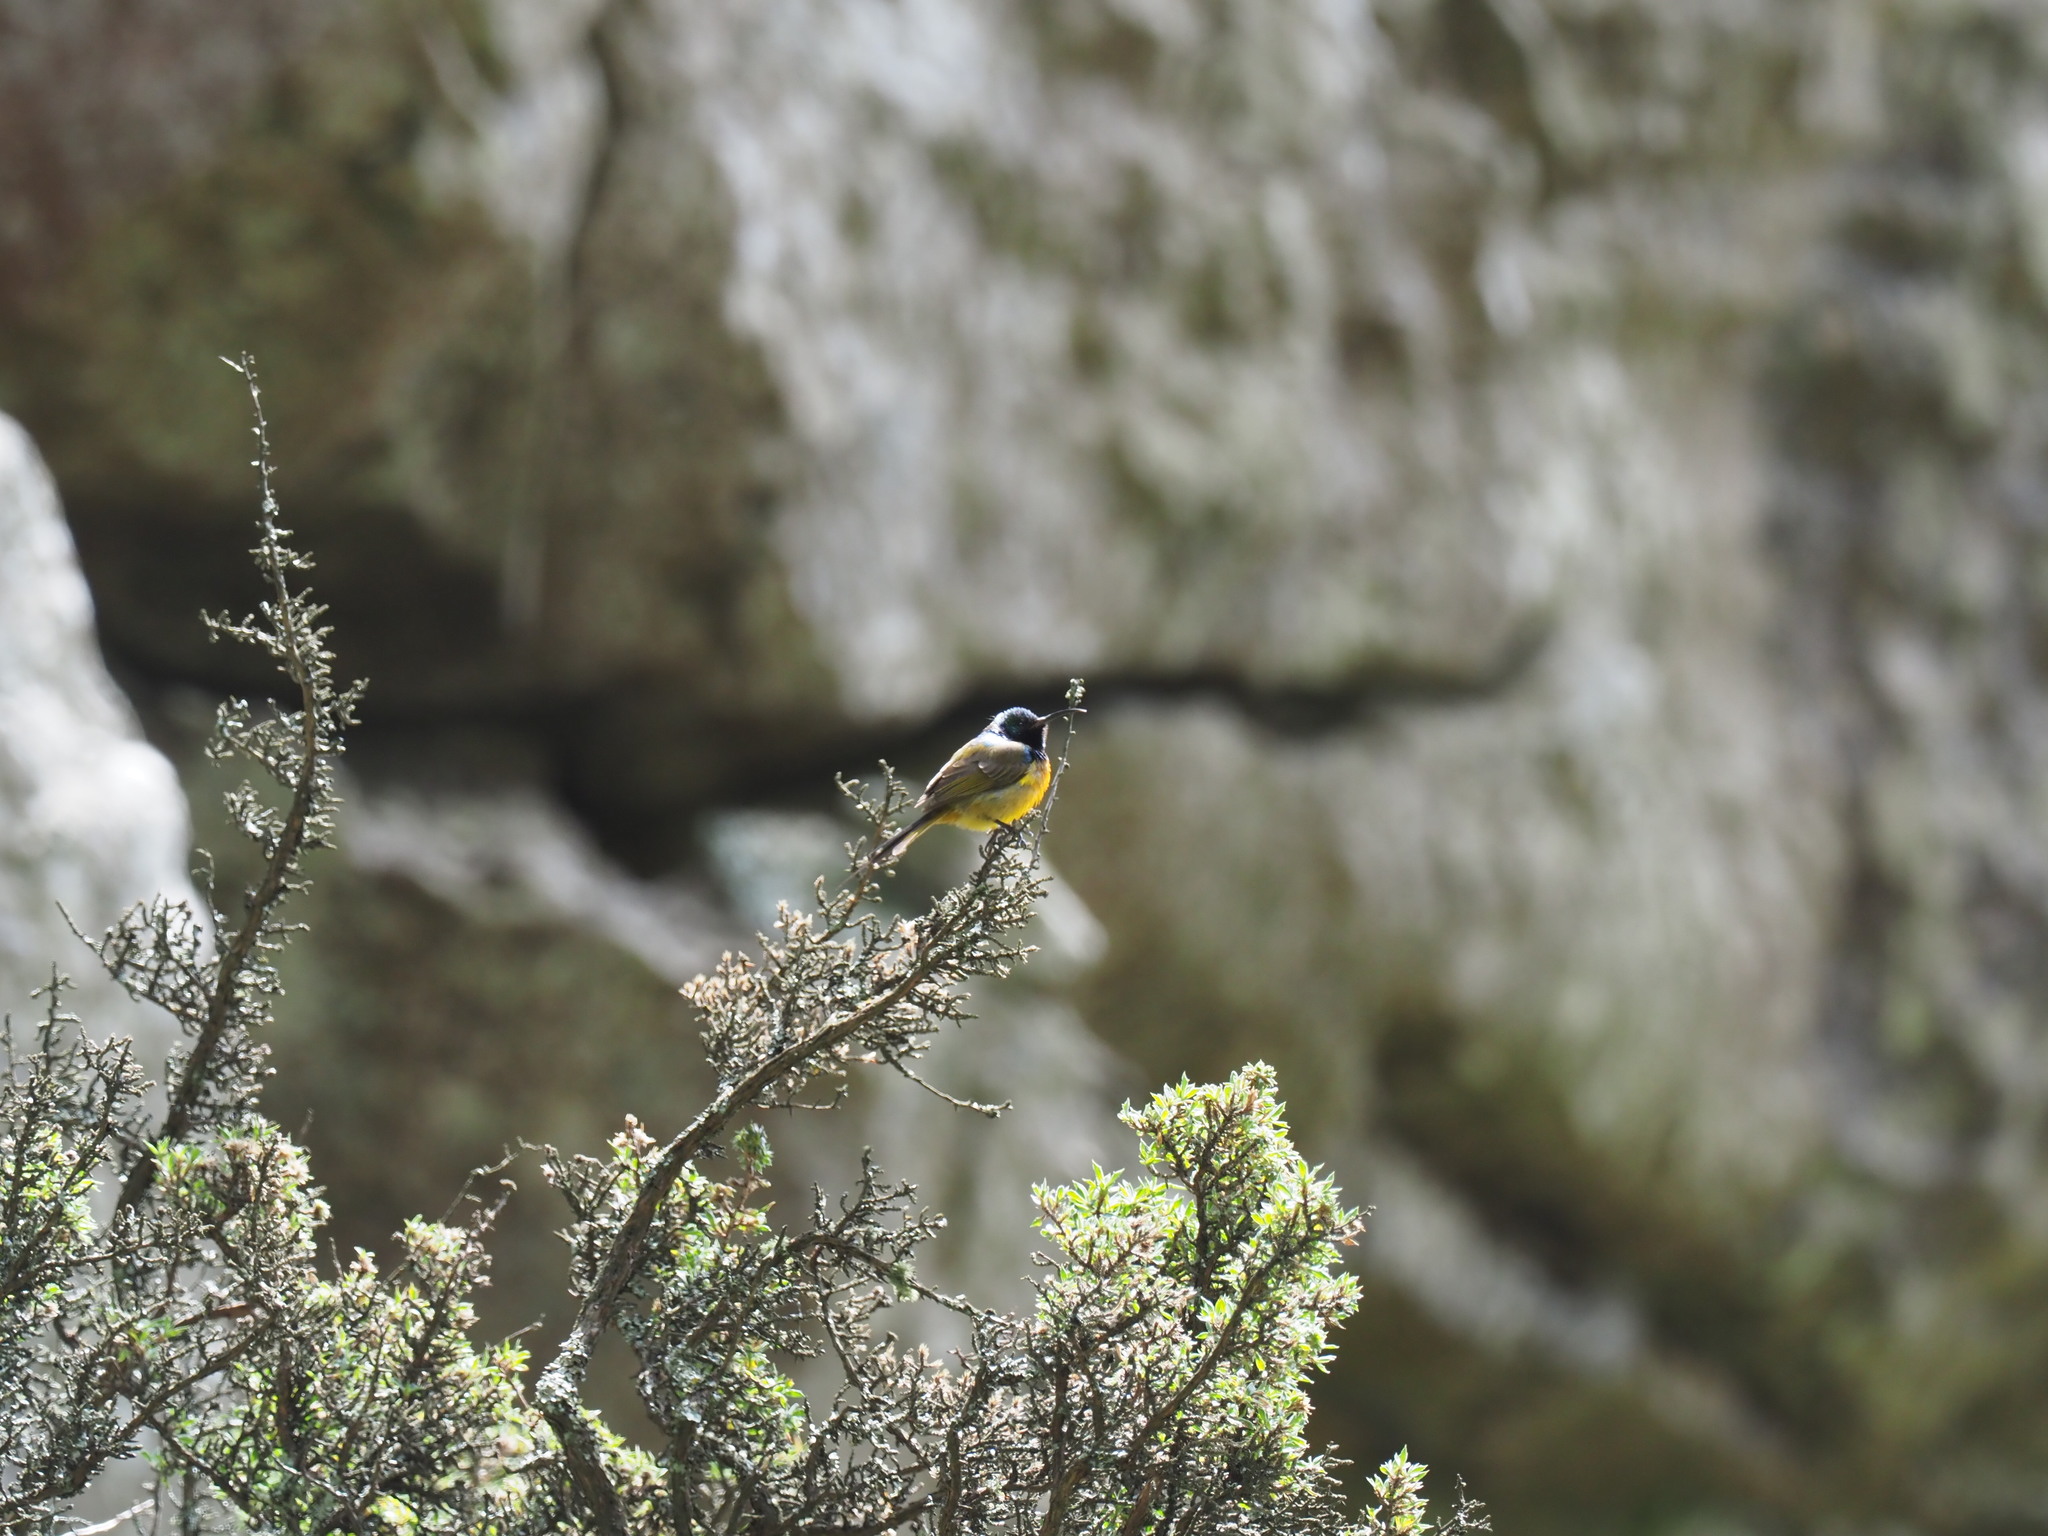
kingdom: Animalia
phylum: Chordata
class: Aves
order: Passeriformes
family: Nectariniidae
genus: Anthobaphes
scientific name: Anthobaphes violacea
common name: Orange-breasted sunbird
